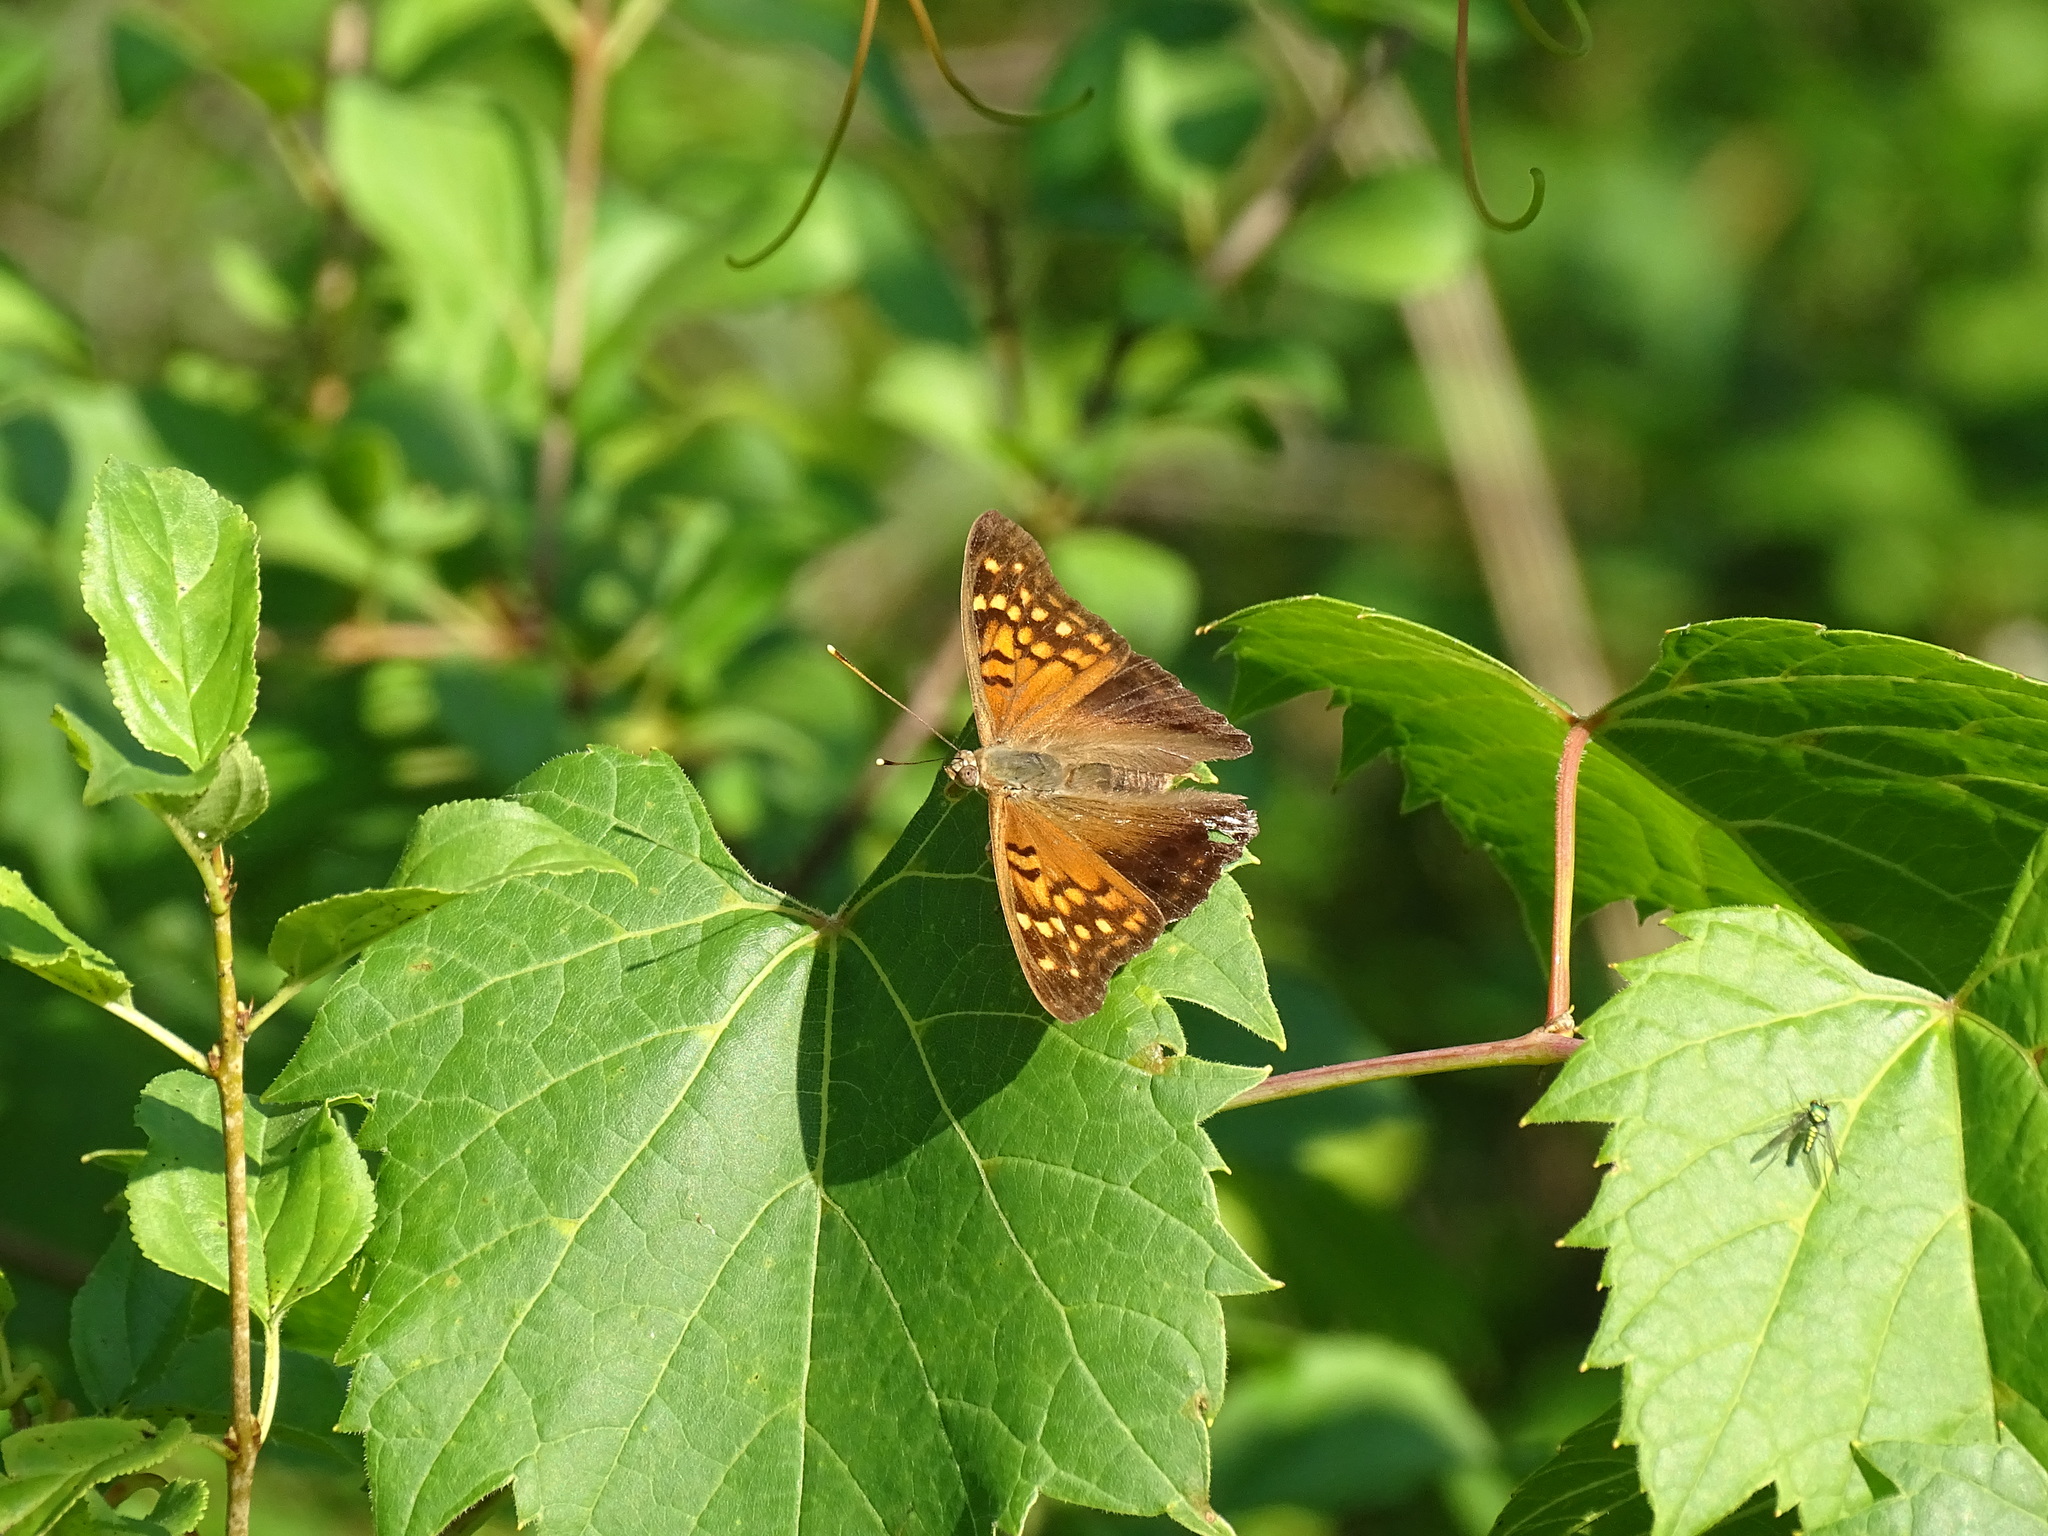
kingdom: Animalia
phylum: Arthropoda
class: Insecta
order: Lepidoptera
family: Nymphalidae
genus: Asterocampa
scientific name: Asterocampa clyton
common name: Tawny emperor
